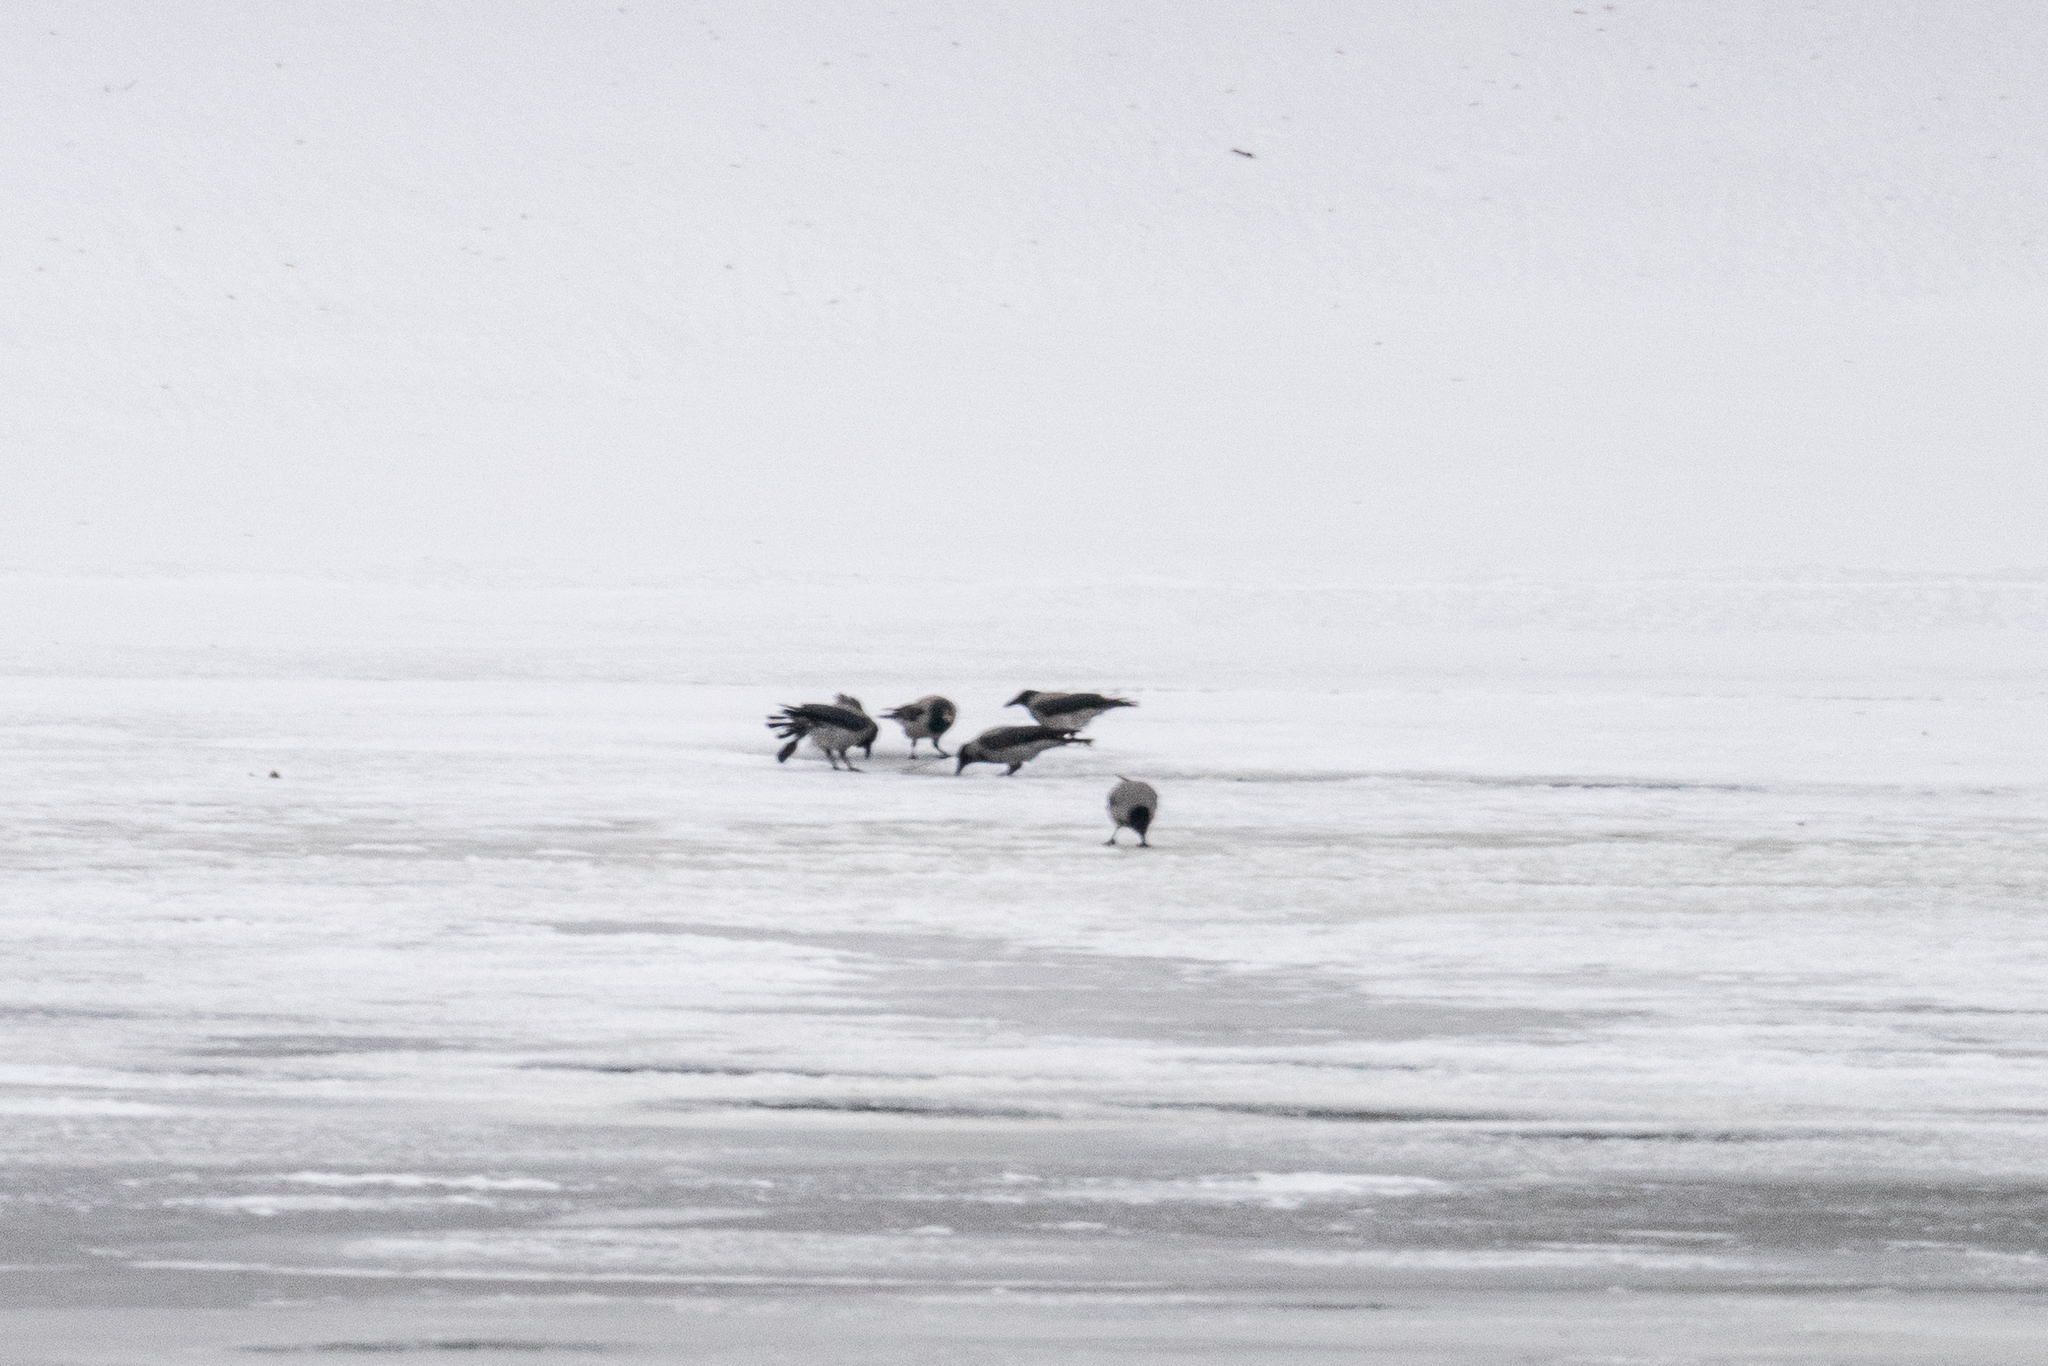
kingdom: Animalia
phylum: Chordata
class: Aves
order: Passeriformes
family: Corvidae
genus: Corvus
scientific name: Corvus cornix
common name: Hooded crow
